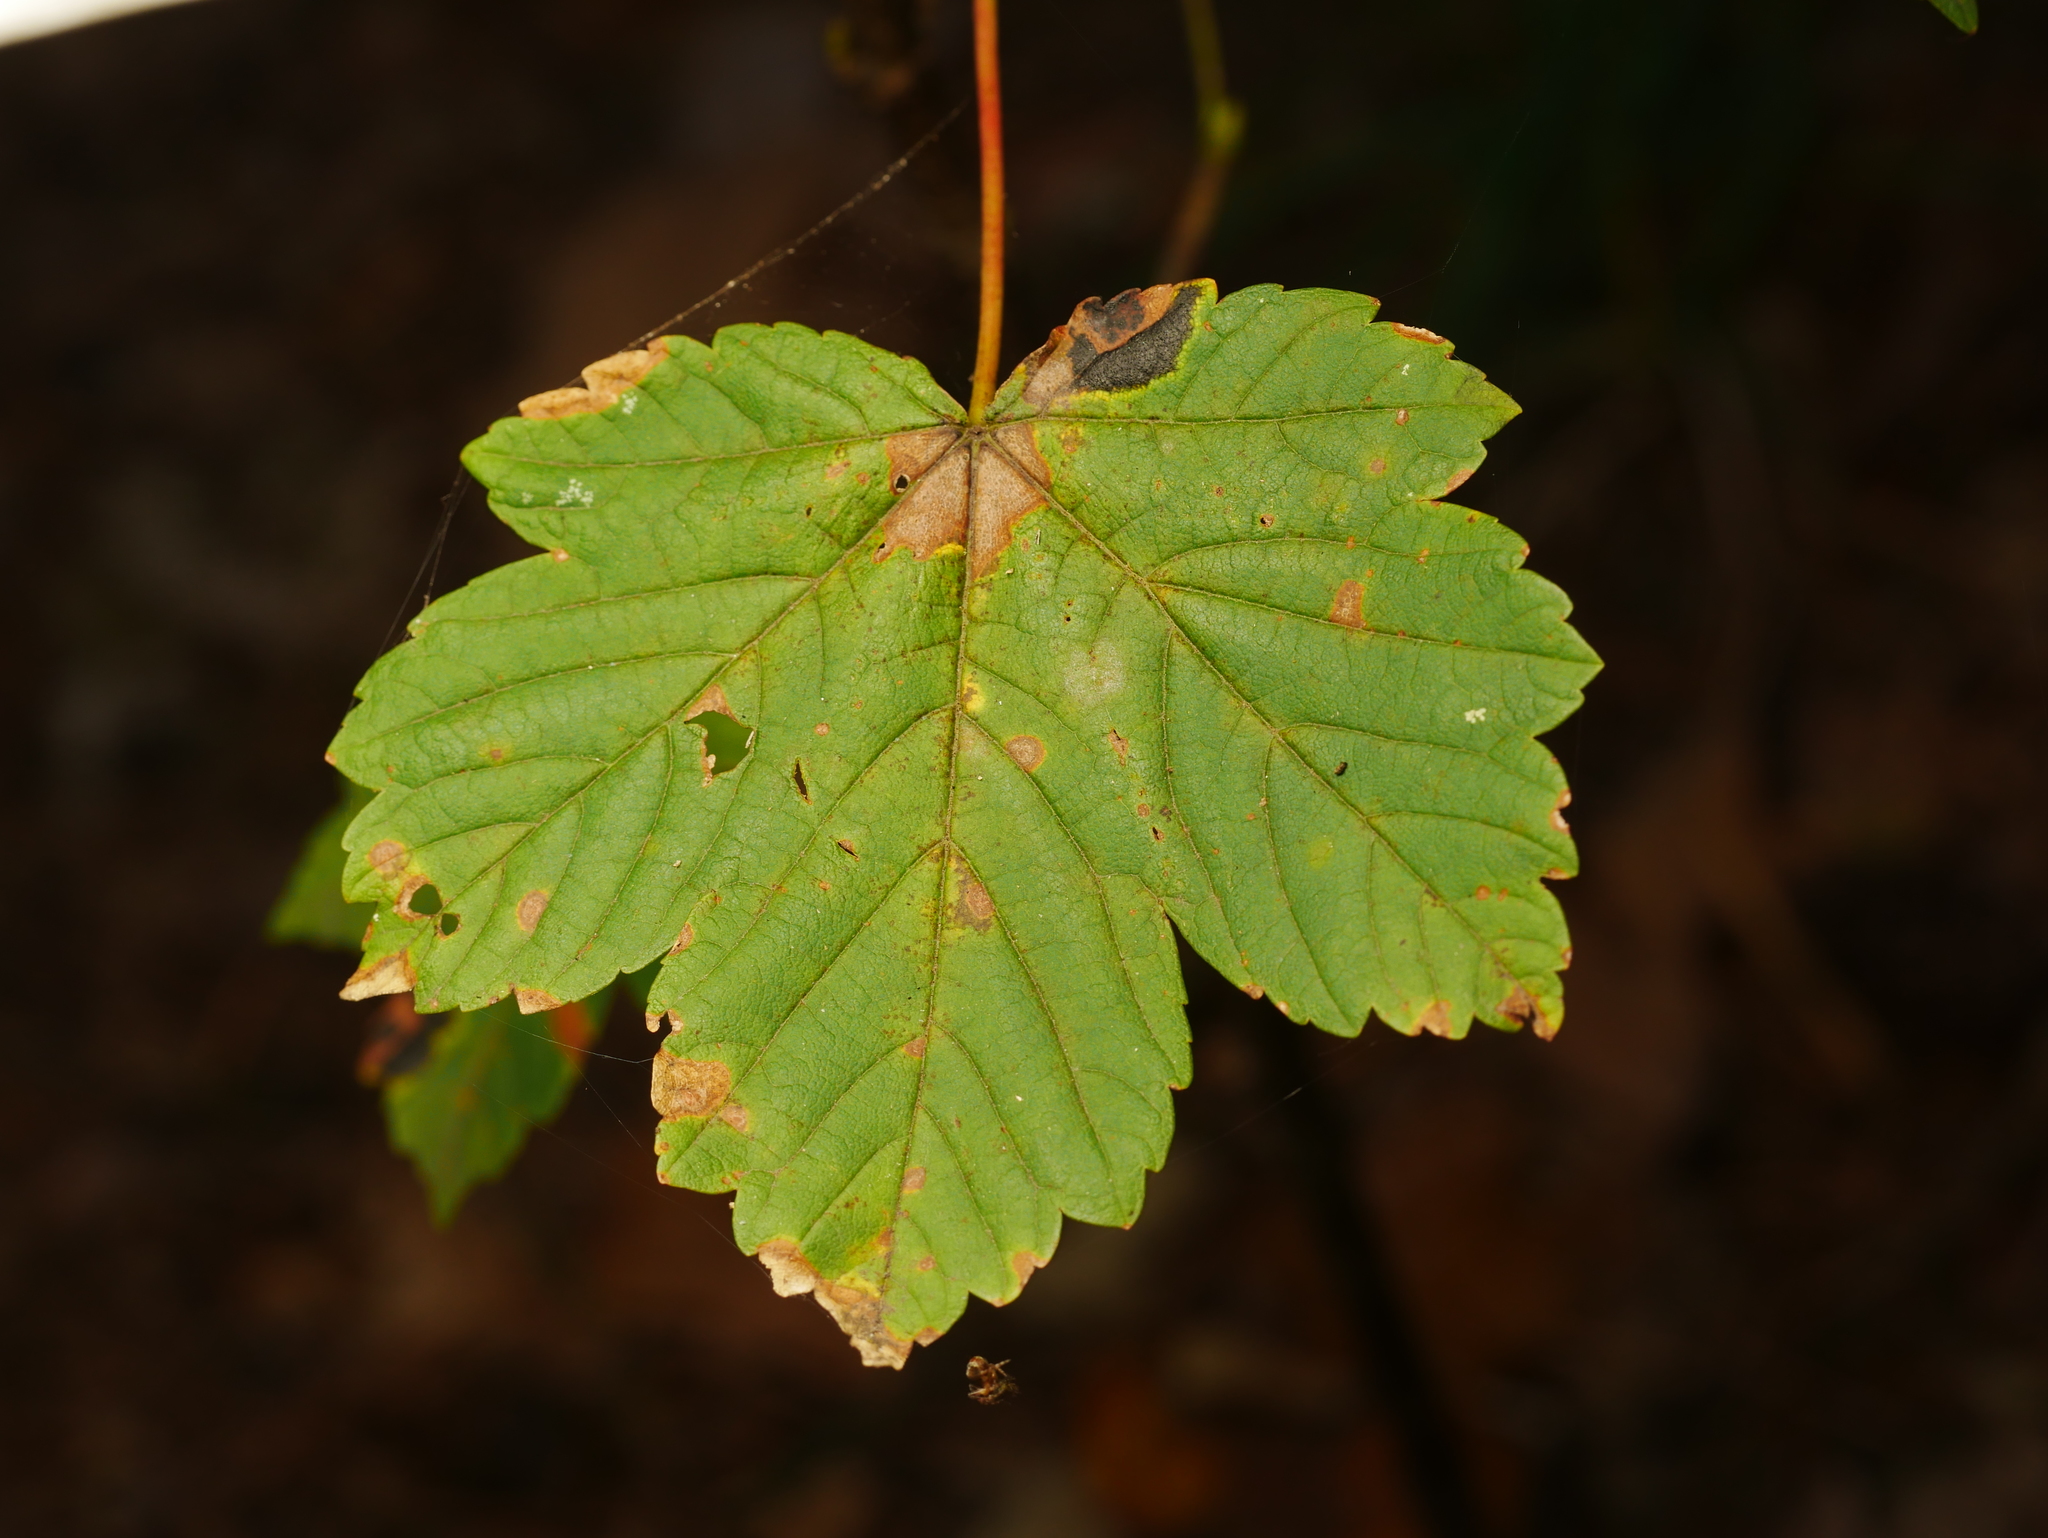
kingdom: Plantae
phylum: Tracheophyta
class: Magnoliopsida
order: Sapindales
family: Sapindaceae
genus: Acer
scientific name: Acer pseudoplatanus
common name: Sycamore
